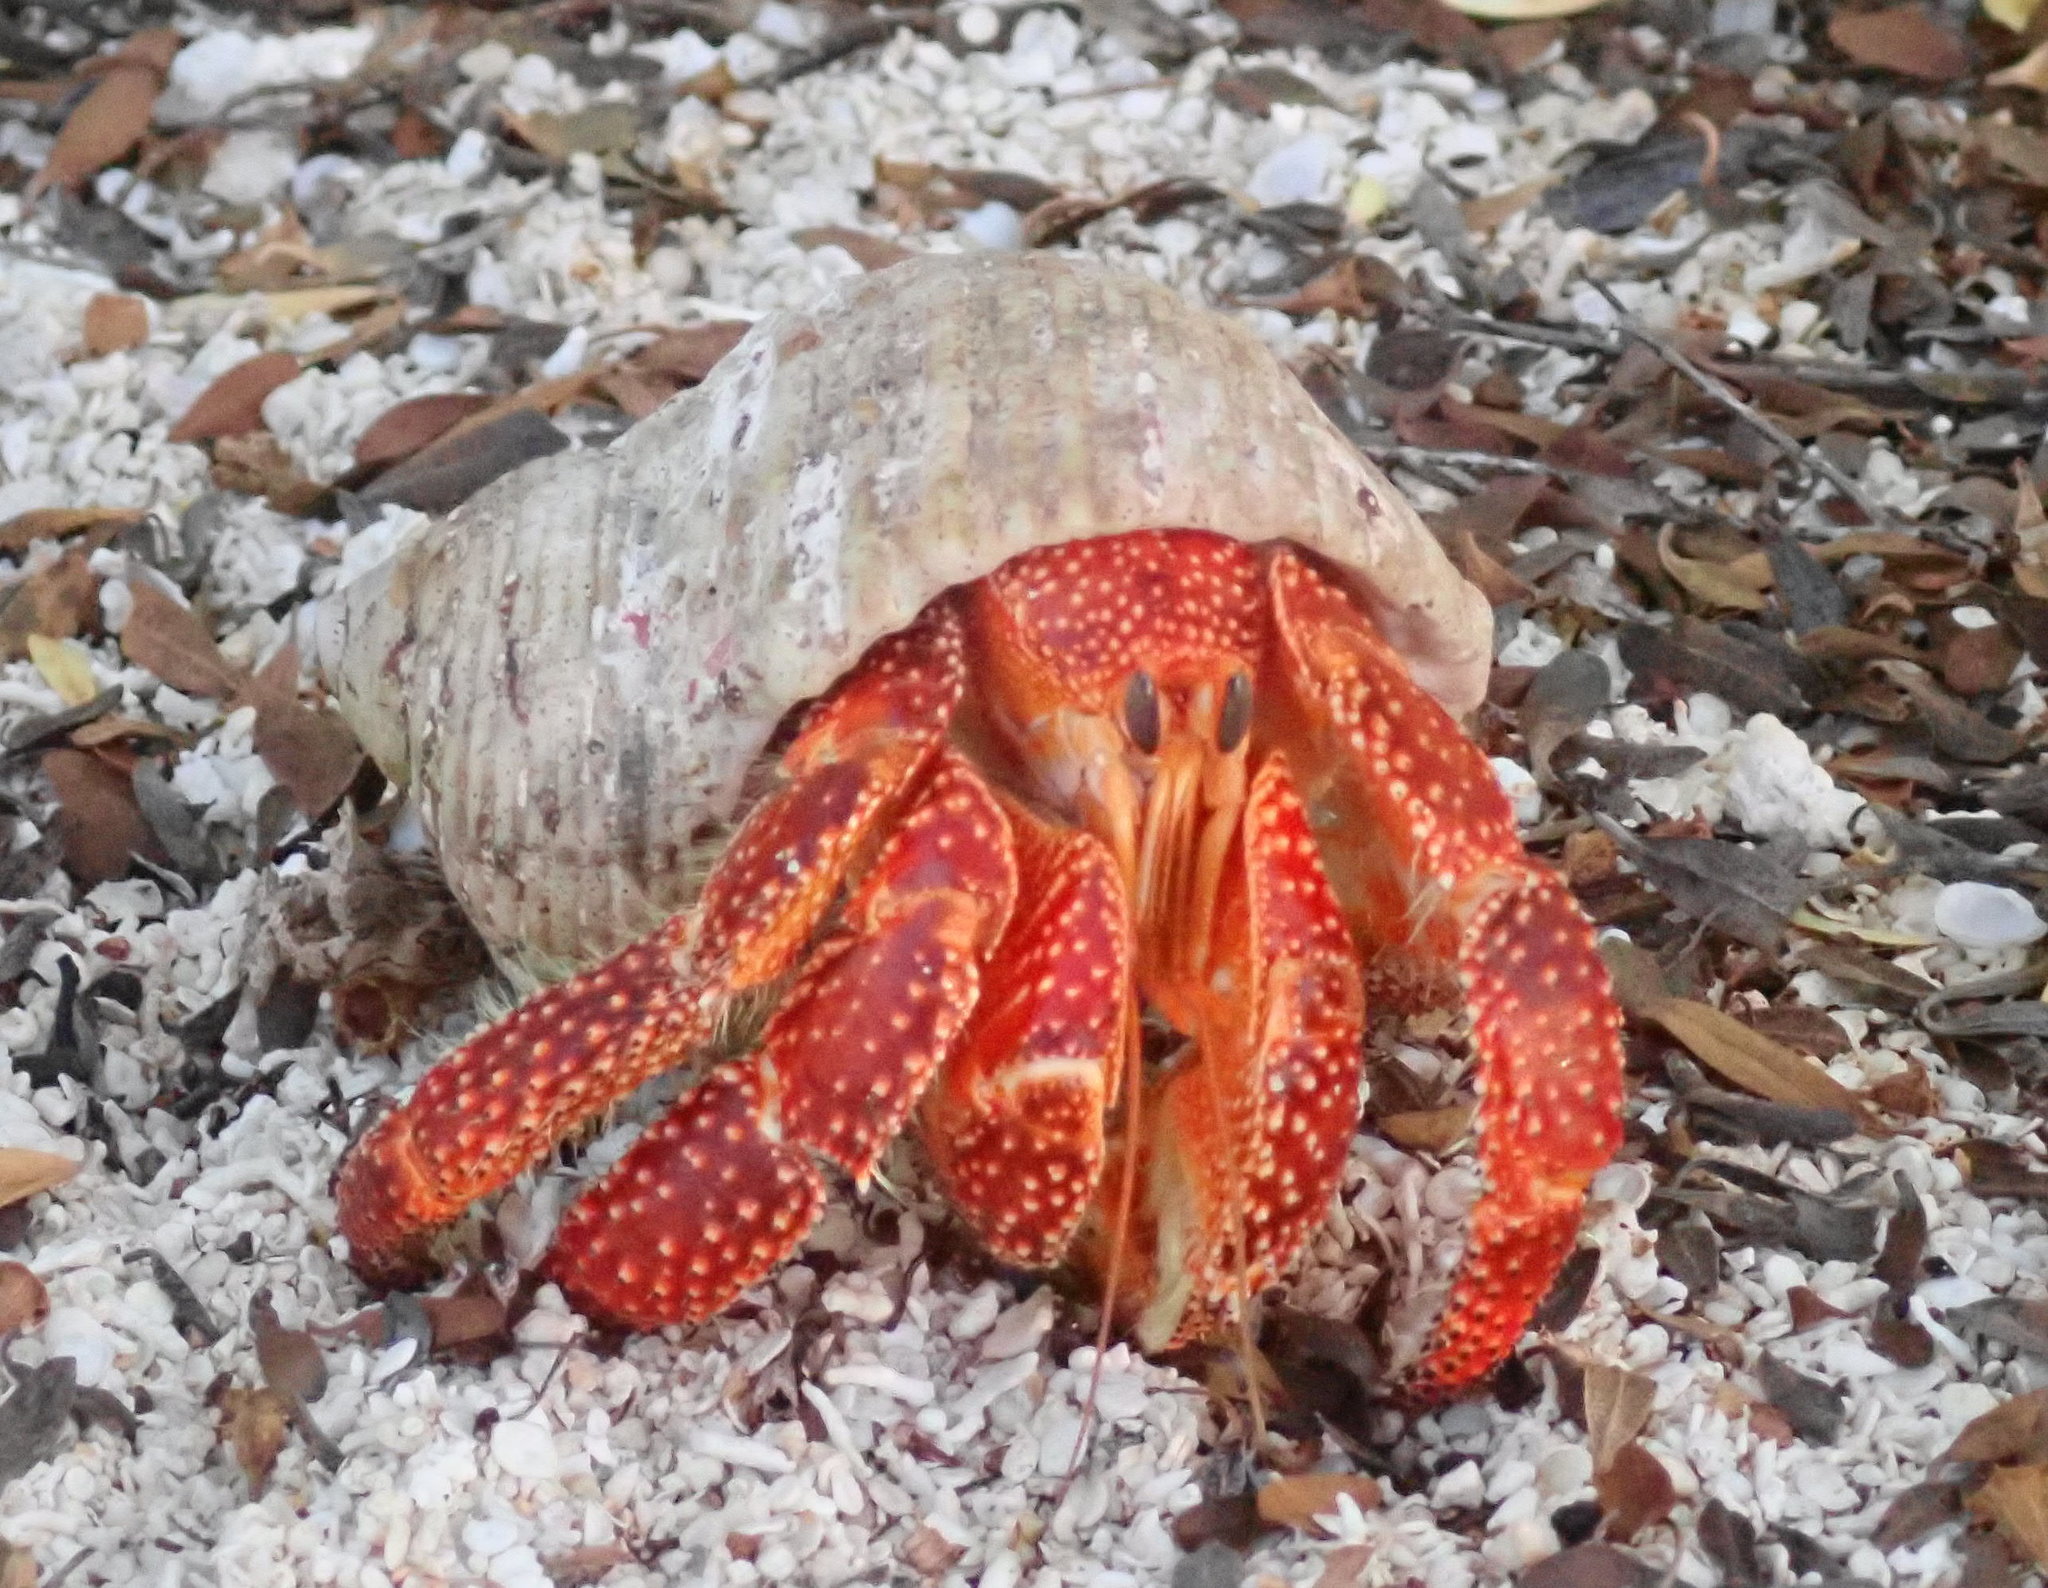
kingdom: Animalia
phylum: Arthropoda
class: Malacostraca
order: Decapoda
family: Coenobitidae
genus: Coenobita
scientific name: Coenobita perlatus
